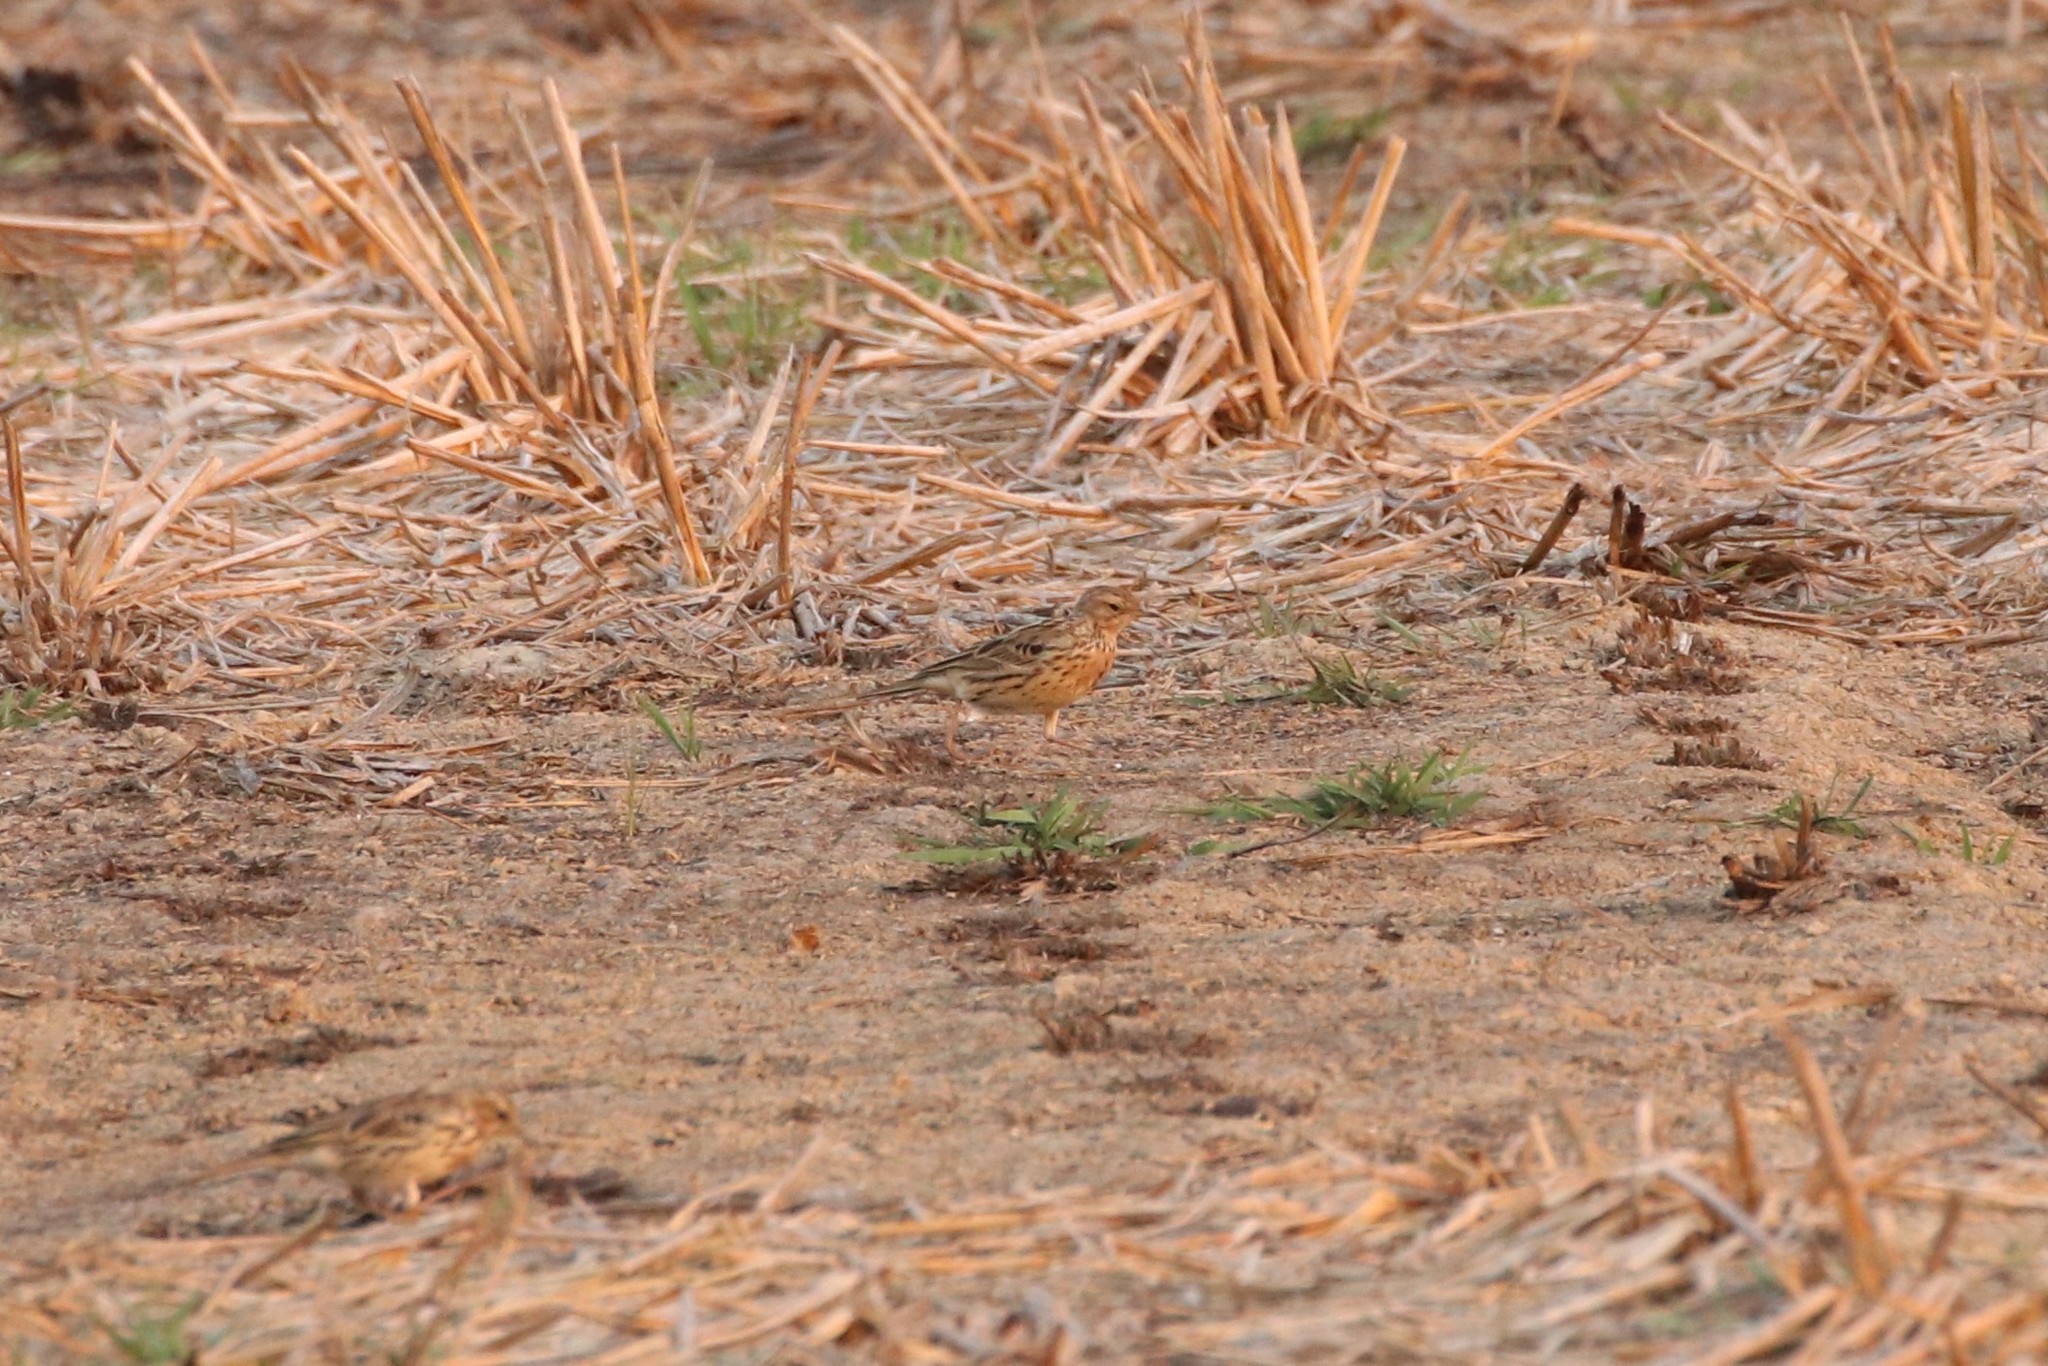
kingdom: Animalia
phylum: Chordata
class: Aves
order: Passeriformes
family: Motacillidae
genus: Anthus
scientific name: Anthus cervinus
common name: Red-throated pipit
